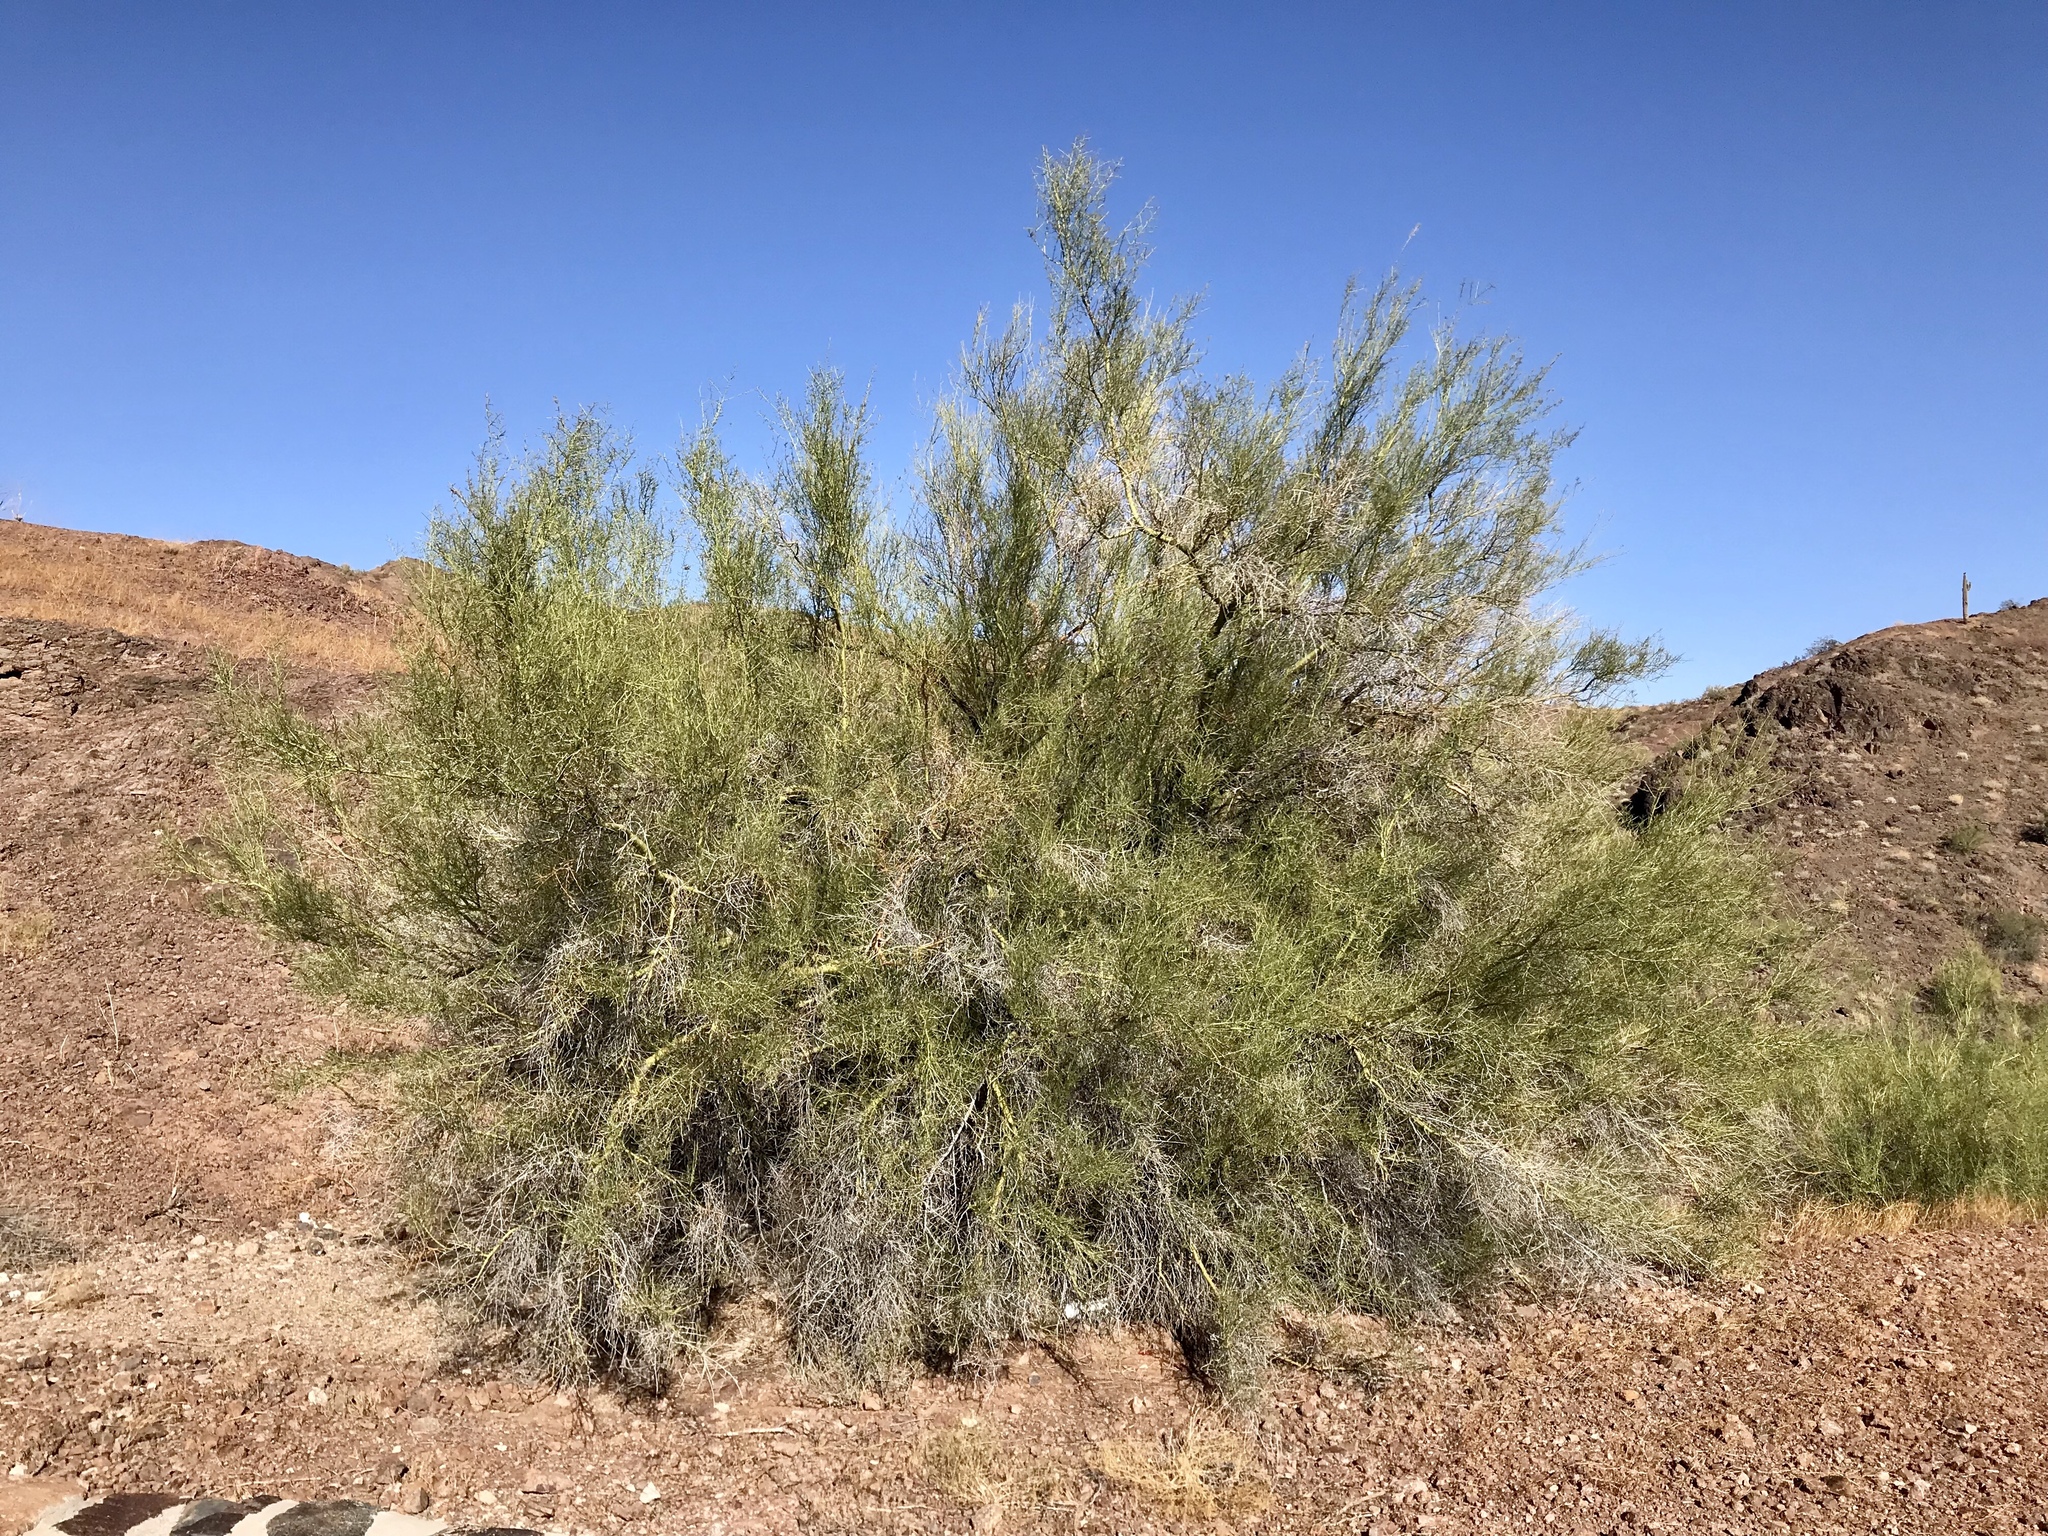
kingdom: Plantae
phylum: Tracheophyta
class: Magnoliopsida
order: Fabales
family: Fabaceae
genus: Parkinsonia
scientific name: Parkinsonia florida
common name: Blue paloverde
